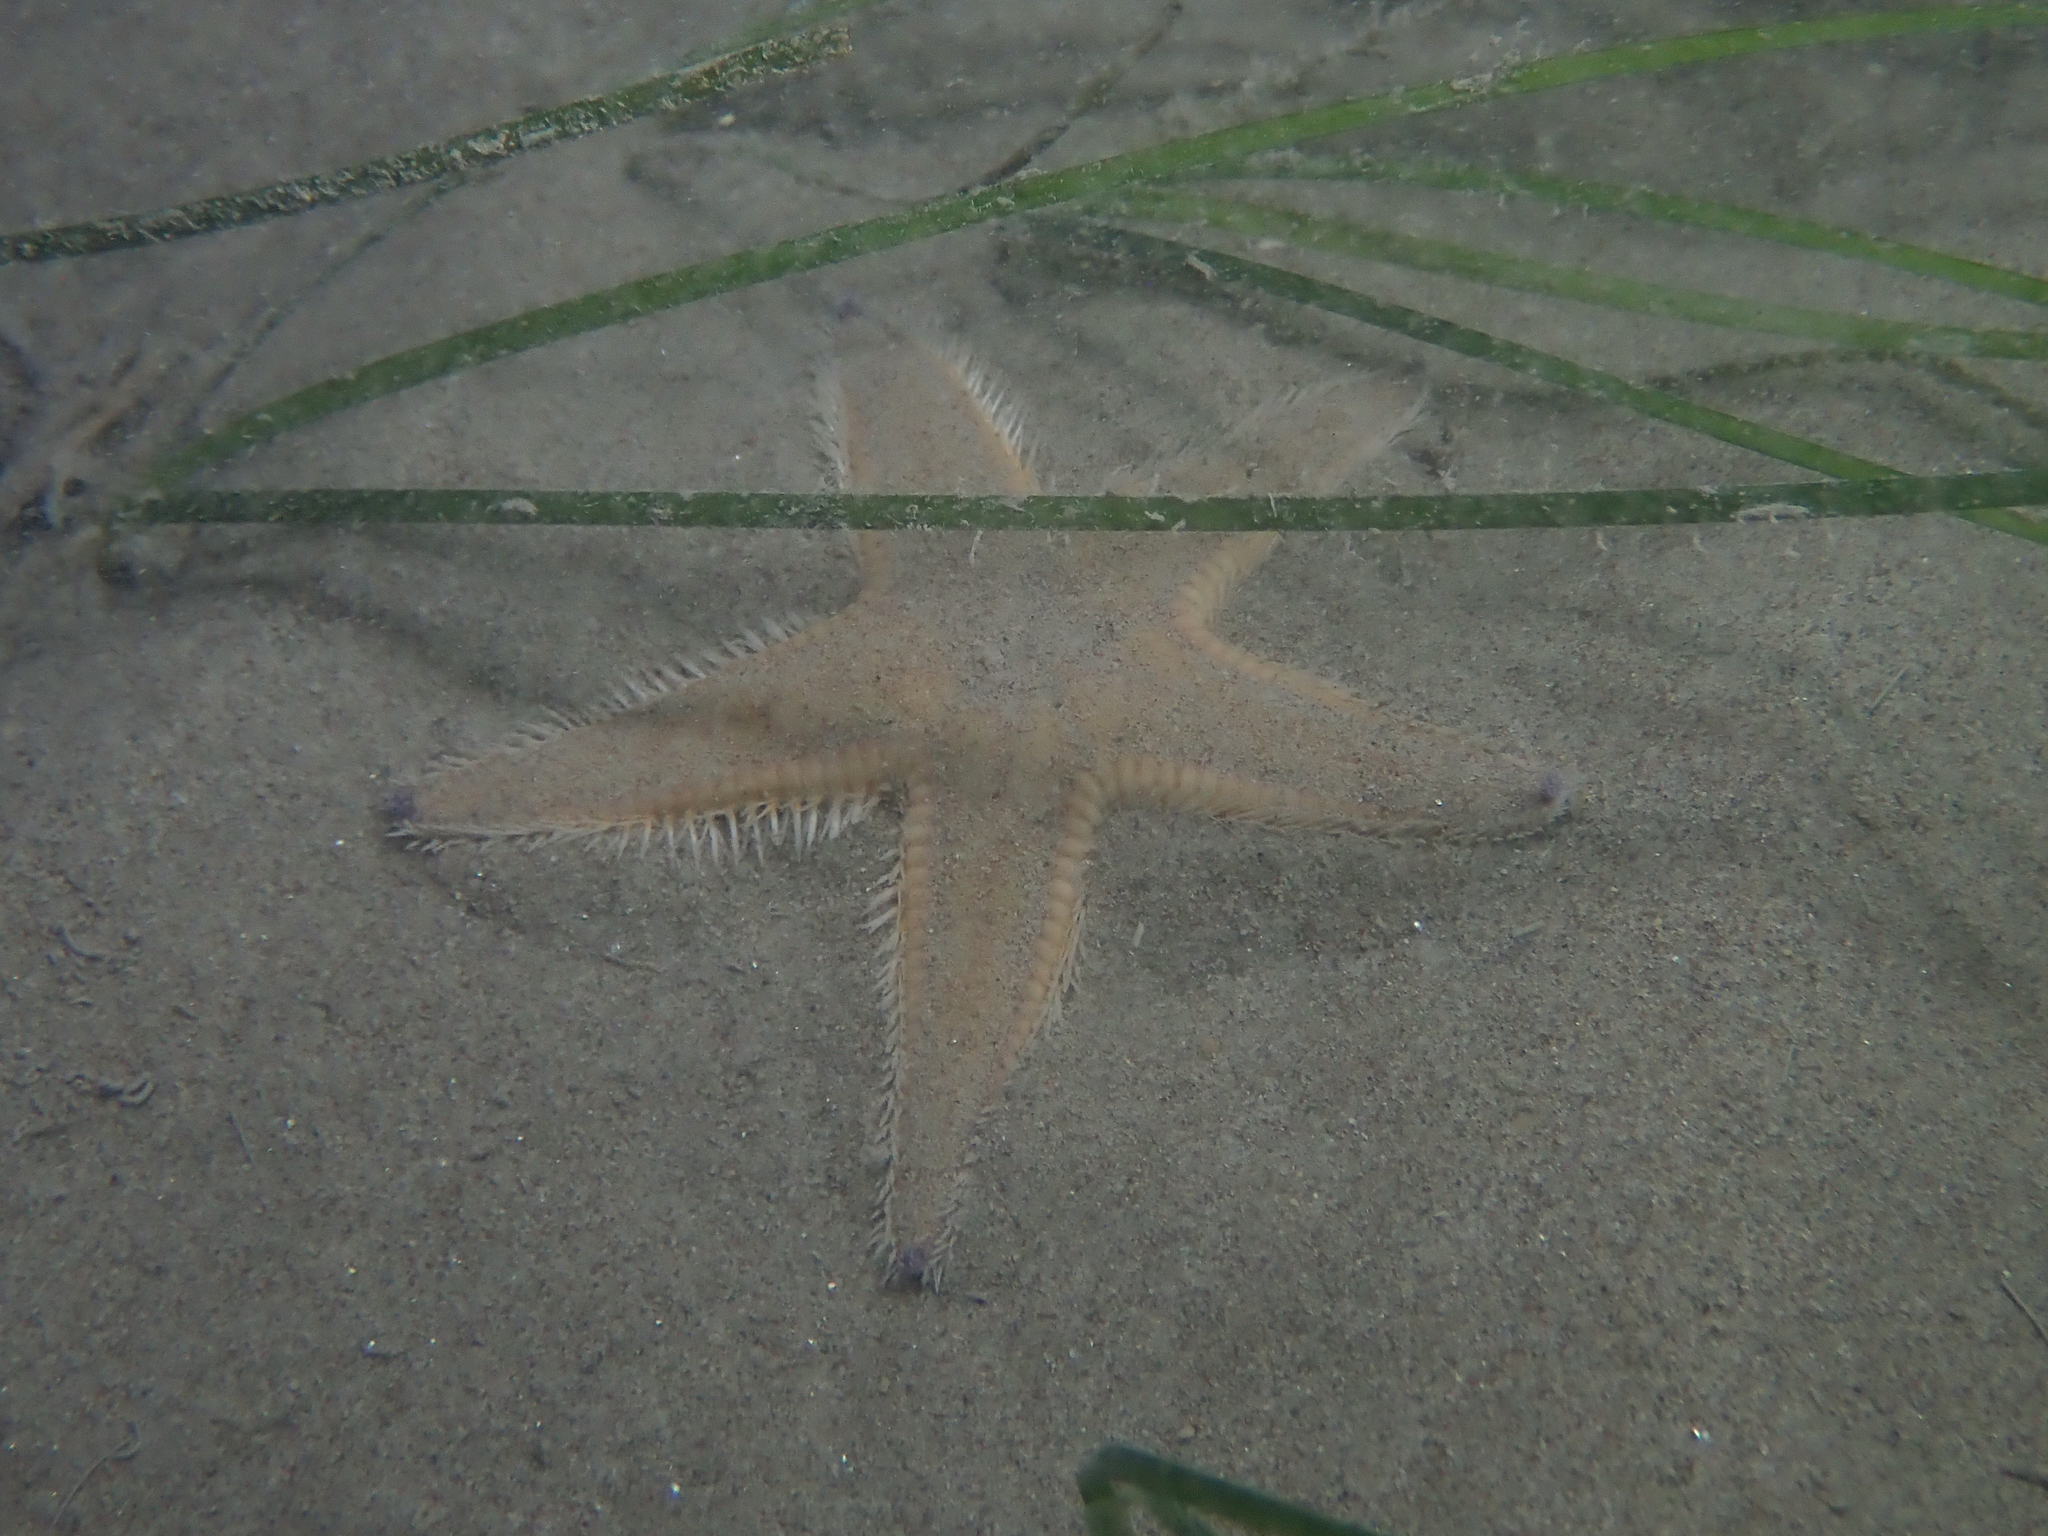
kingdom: Animalia
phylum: Echinodermata
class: Asteroidea
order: Paxillosida
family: Astropectinidae
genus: Astropecten
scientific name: Astropecten irregularis
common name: Sand star
